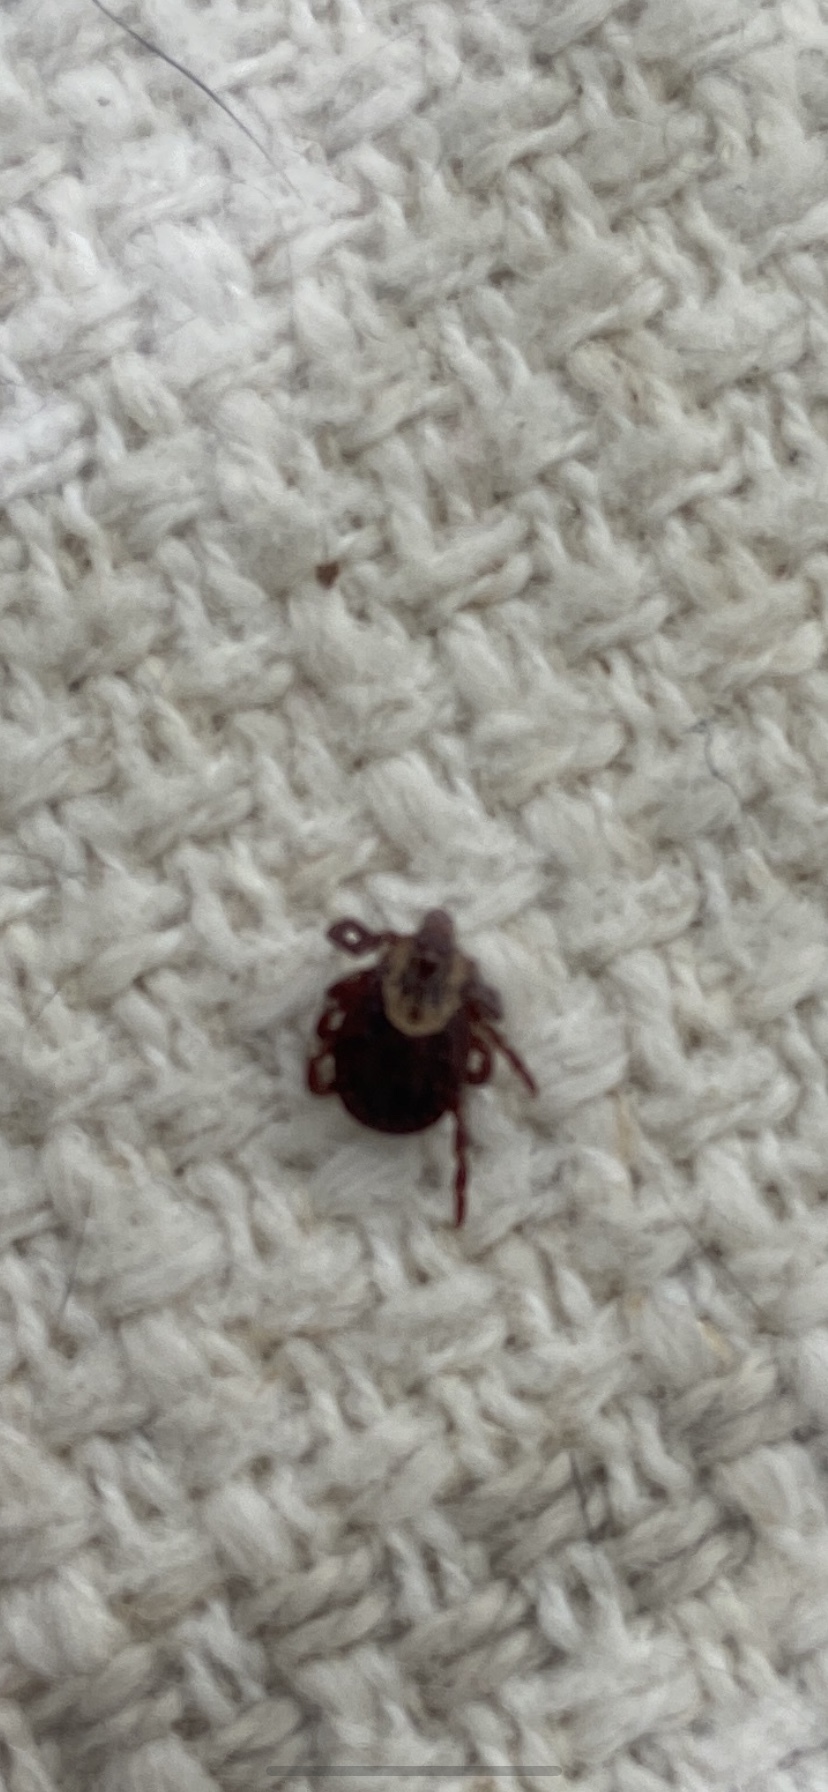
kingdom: Animalia
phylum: Arthropoda
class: Arachnida
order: Ixodida
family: Ixodidae
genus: Dermacentor
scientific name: Dermacentor variabilis
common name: American dog tick
